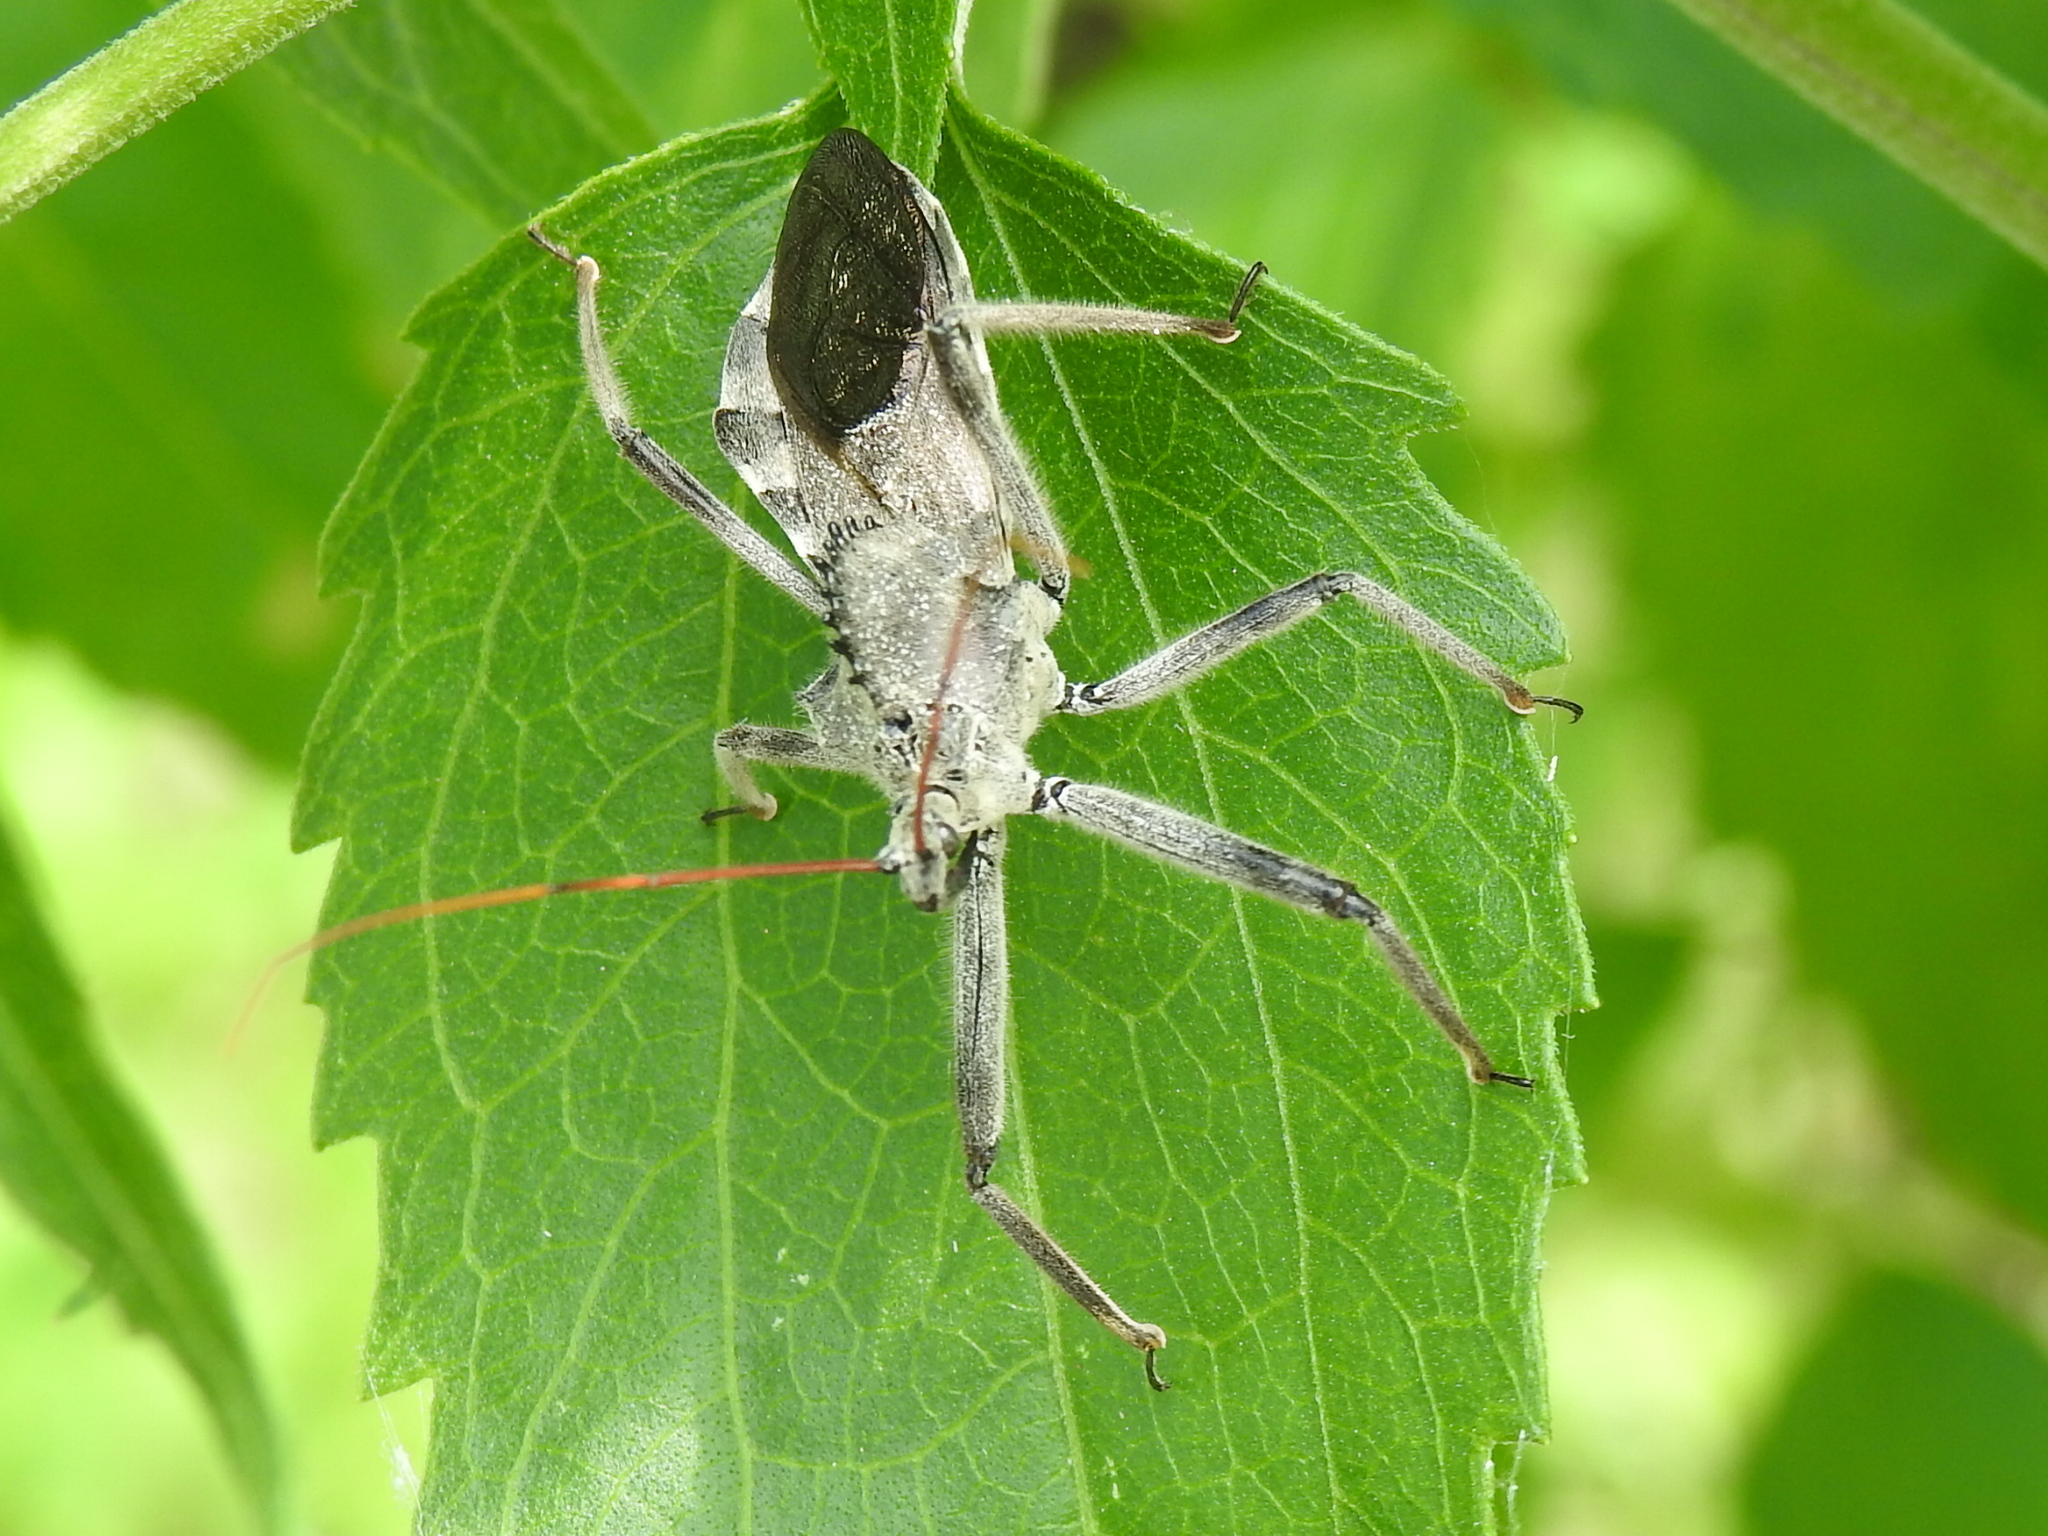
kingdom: Animalia
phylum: Arthropoda
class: Insecta
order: Hemiptera
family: Reduviidae
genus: Arilus
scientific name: Arilus cristatus
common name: North american wheel bug
